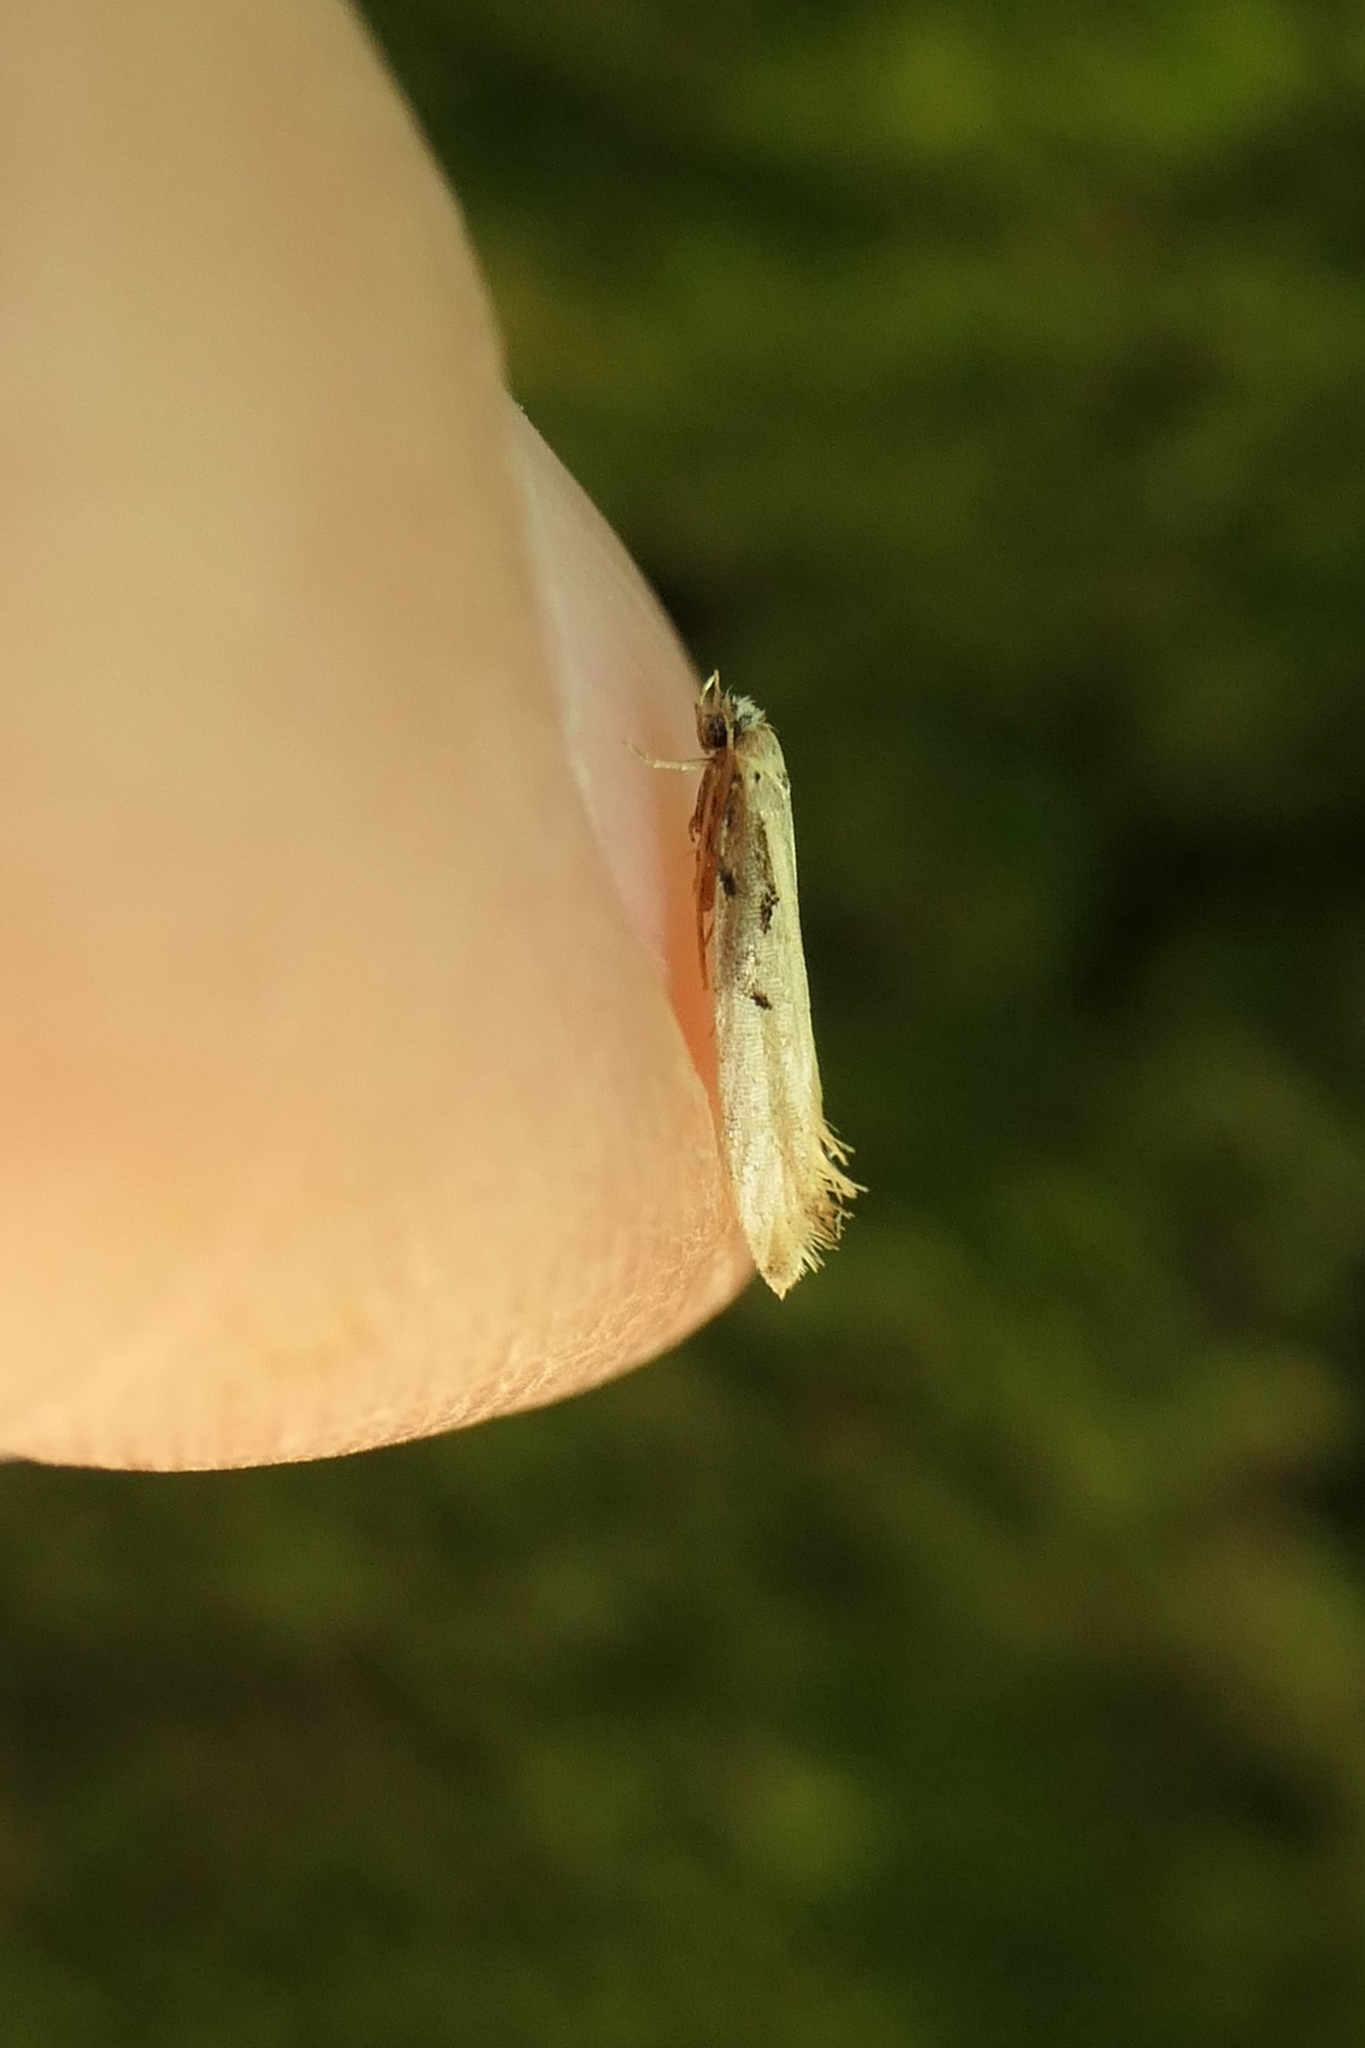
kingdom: Animalia
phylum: Arthropoda
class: Insecta
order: Lepidoptera
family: Tineidae
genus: Crypsitricha
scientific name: Crypsitricha pharotoma
